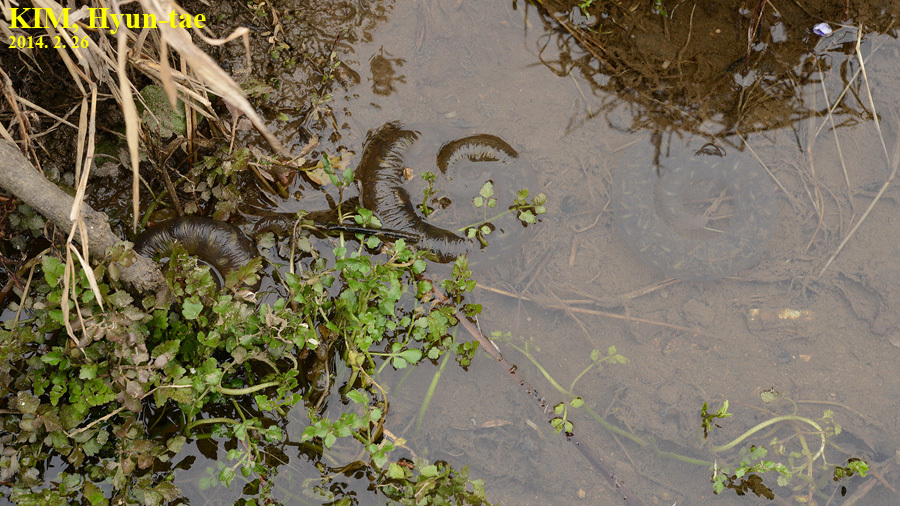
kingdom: Animalia
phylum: Chordata
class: Amphibia
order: Caudata
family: Hynobiidae
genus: Hynobius
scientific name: Hynobius leechii
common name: Gensan salamander
